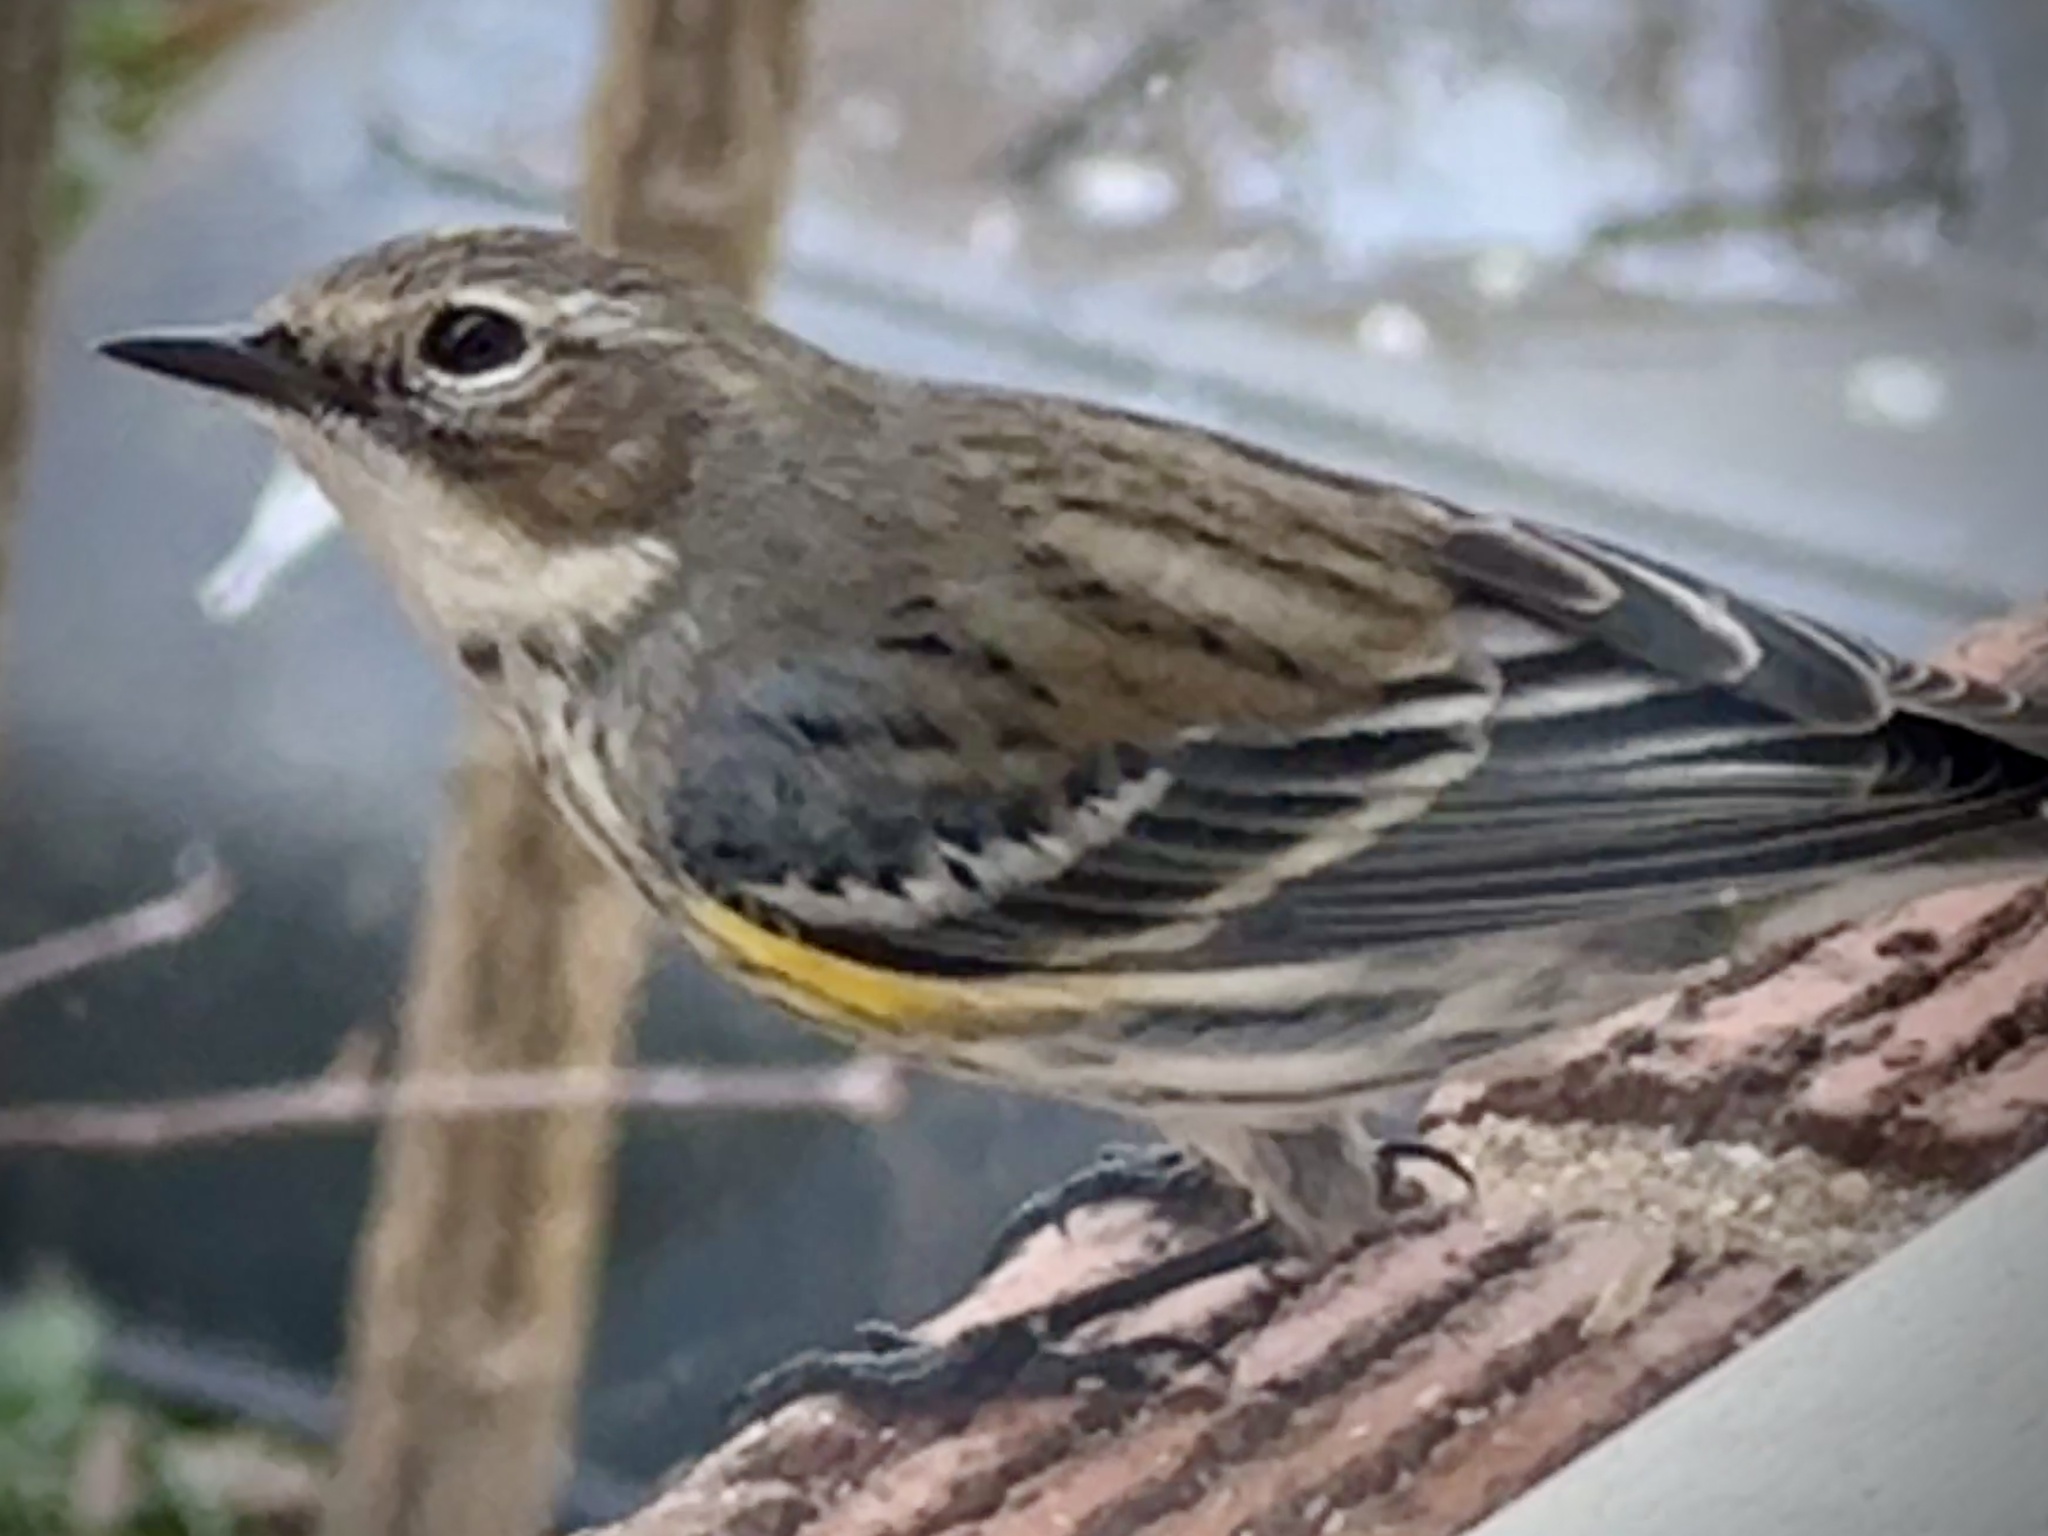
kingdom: Animalia
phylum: Chordata
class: Aves
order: Passeriformes
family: Parulidae
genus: Setophaga
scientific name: Setophaga coronata
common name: Myrtle warbler
